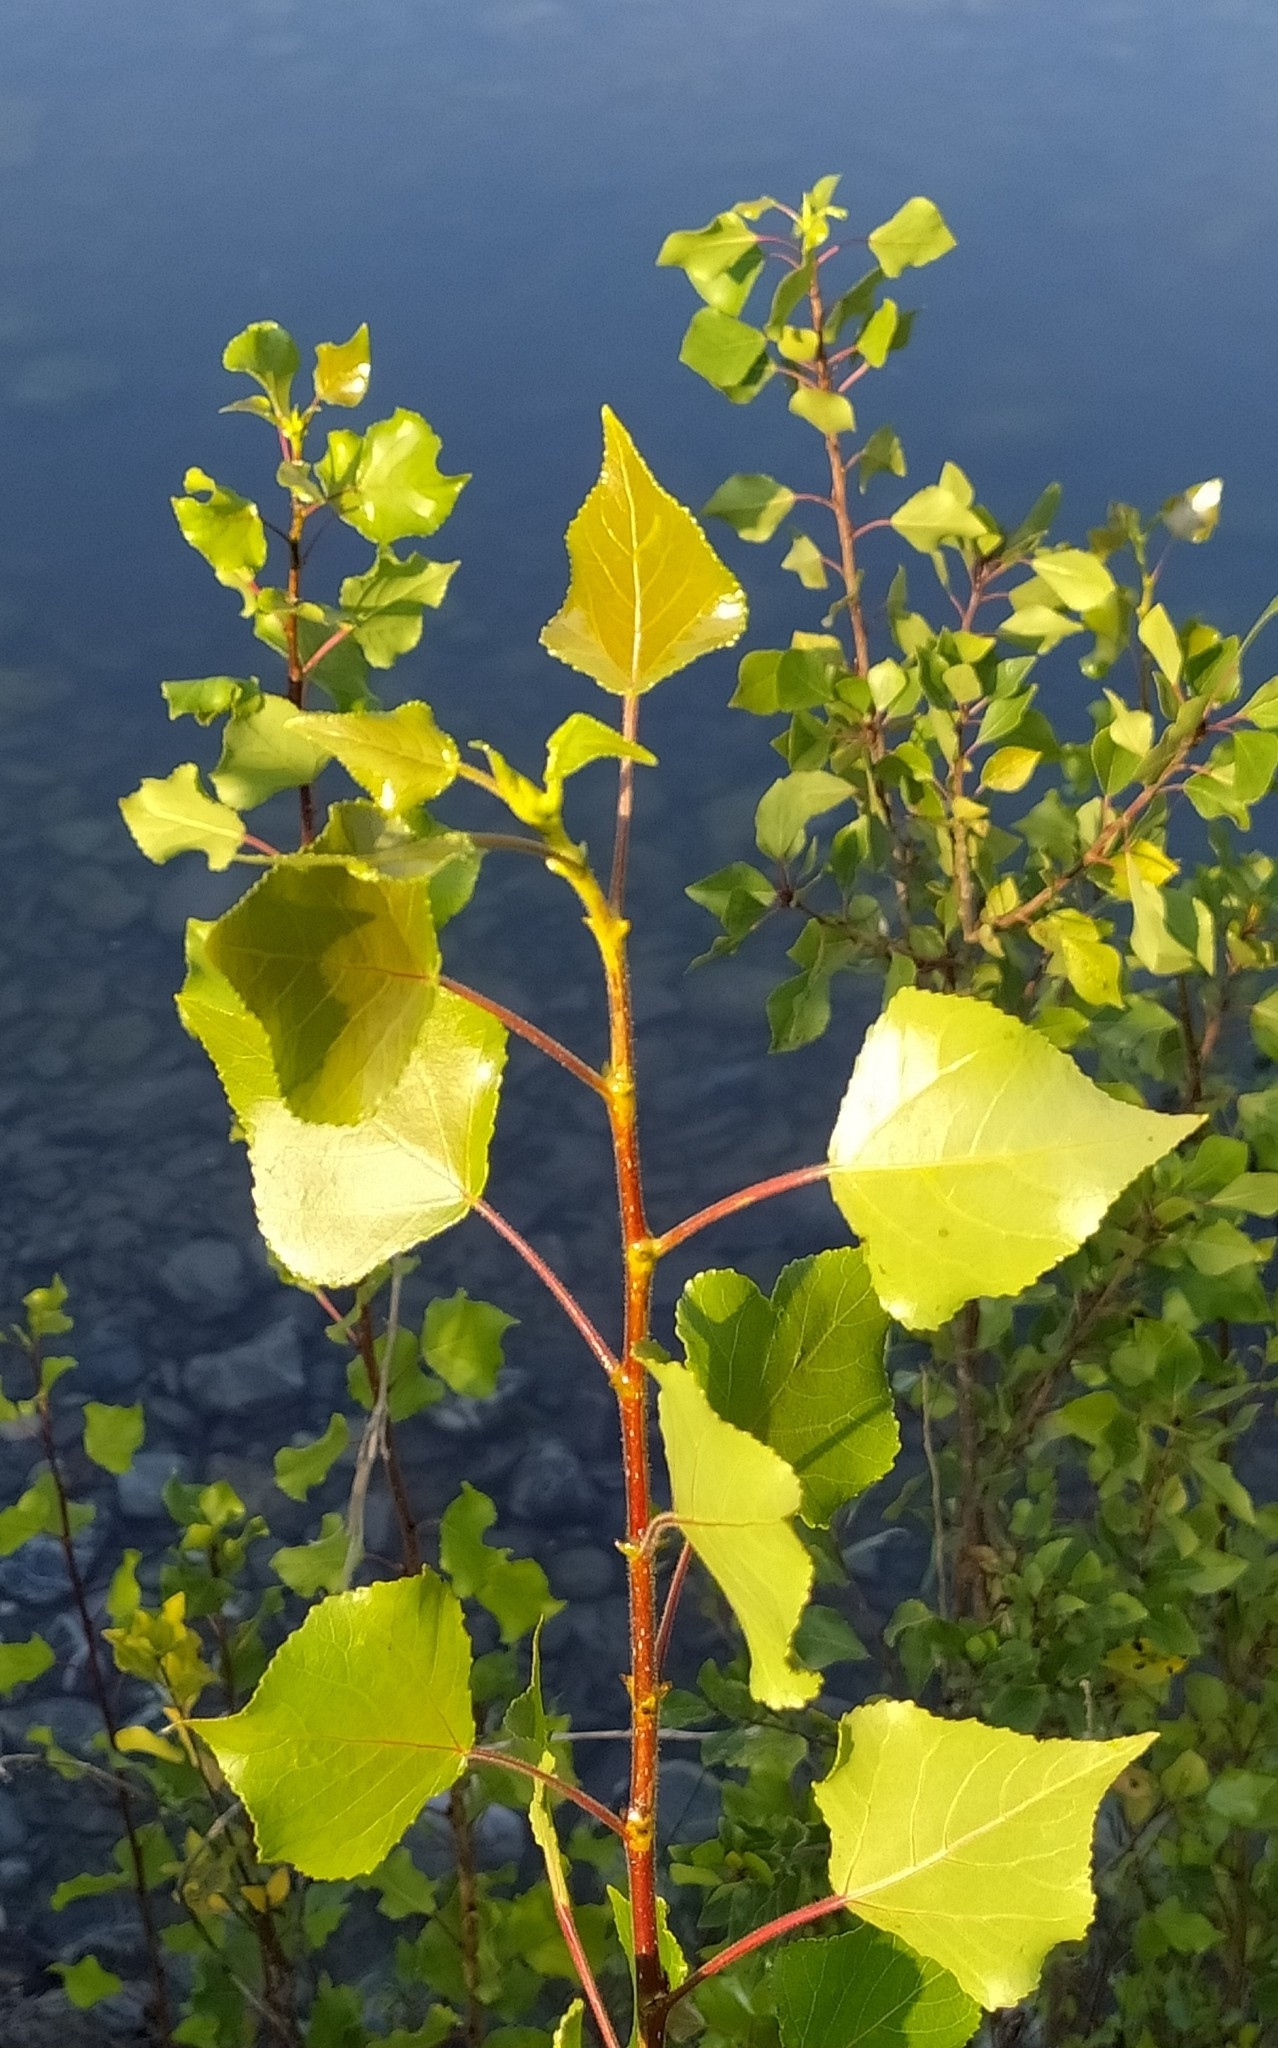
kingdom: Plantae
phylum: Tracheophyta
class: Magnoliopsida
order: Malpighiales
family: Salicaceae
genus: Populus
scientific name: Populus nigra
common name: Black poplar
